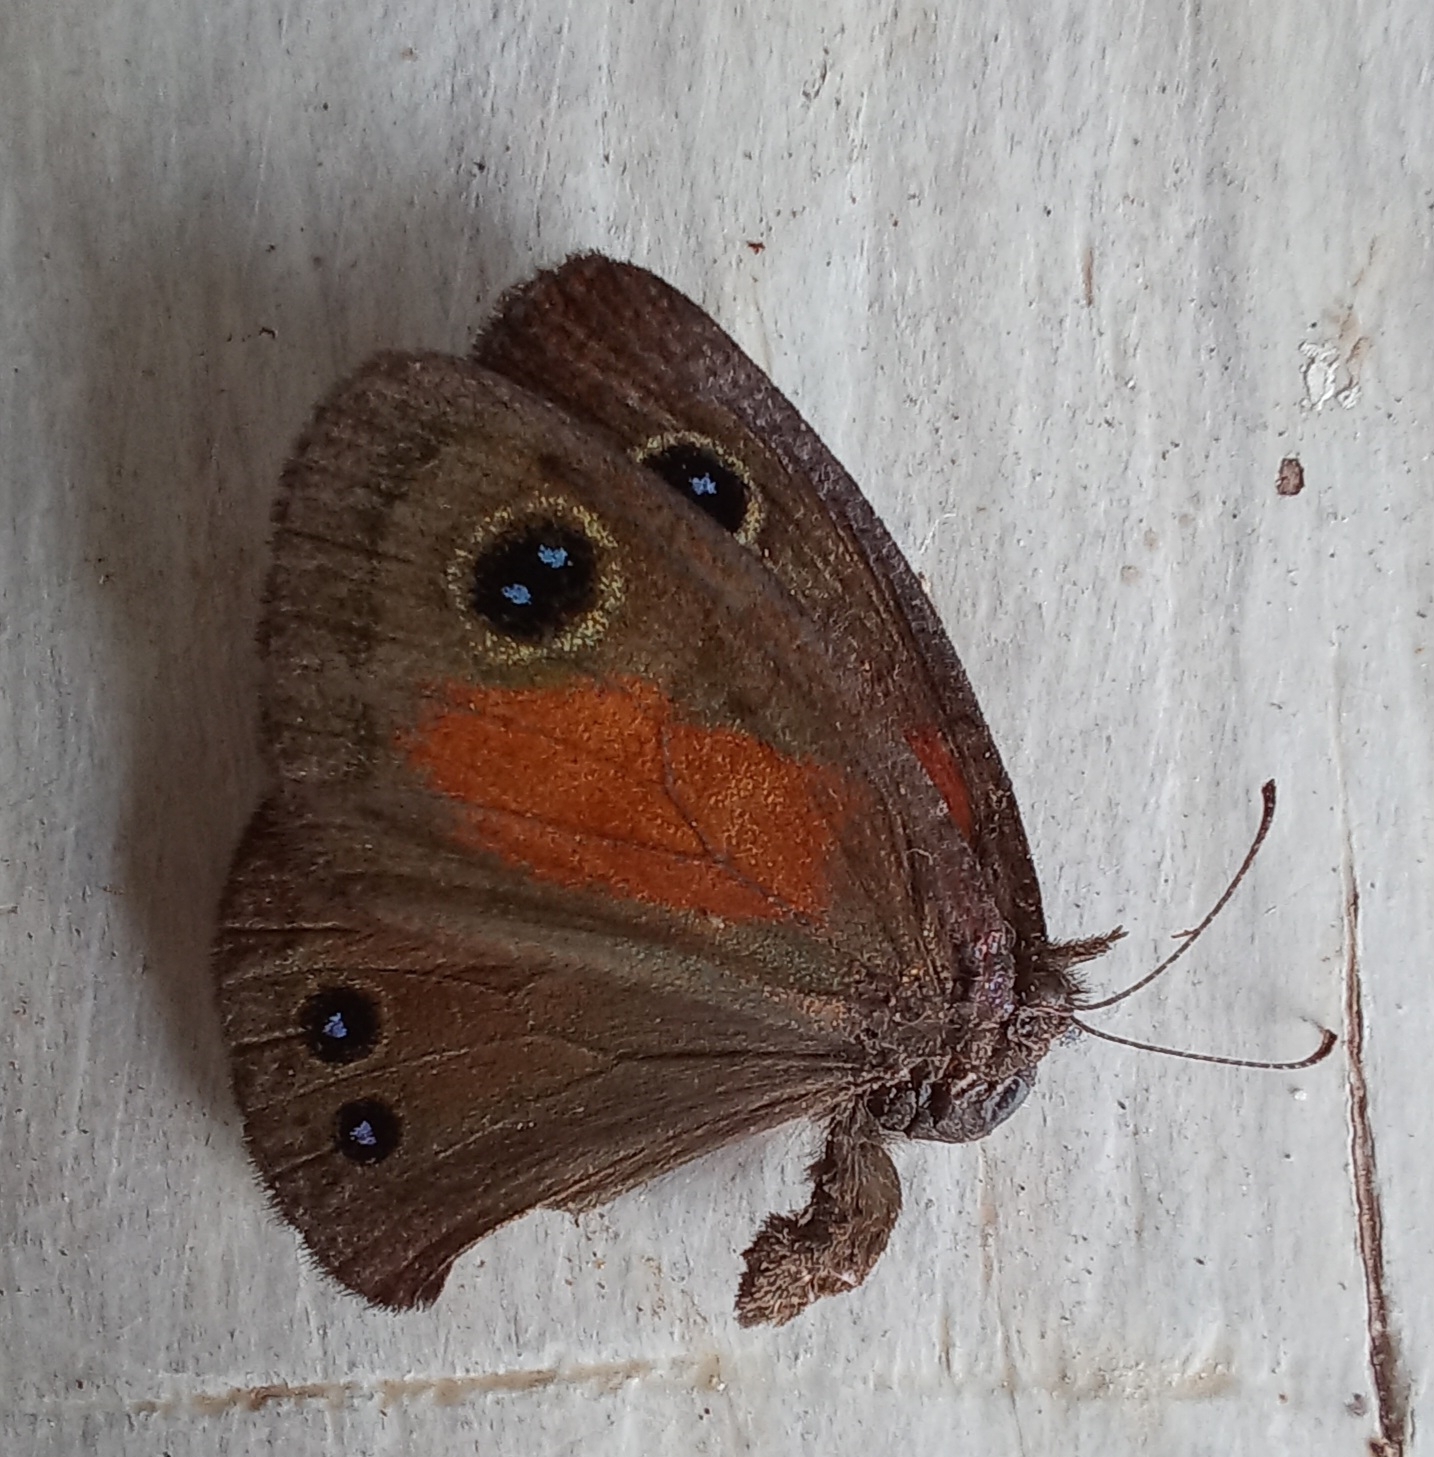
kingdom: Animalia
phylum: Arthropoda
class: Insecta
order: Lepidoptera
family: Nymphalidae
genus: Cassionympha
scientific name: Cassionympha perissinottoi
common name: Coastal brown
